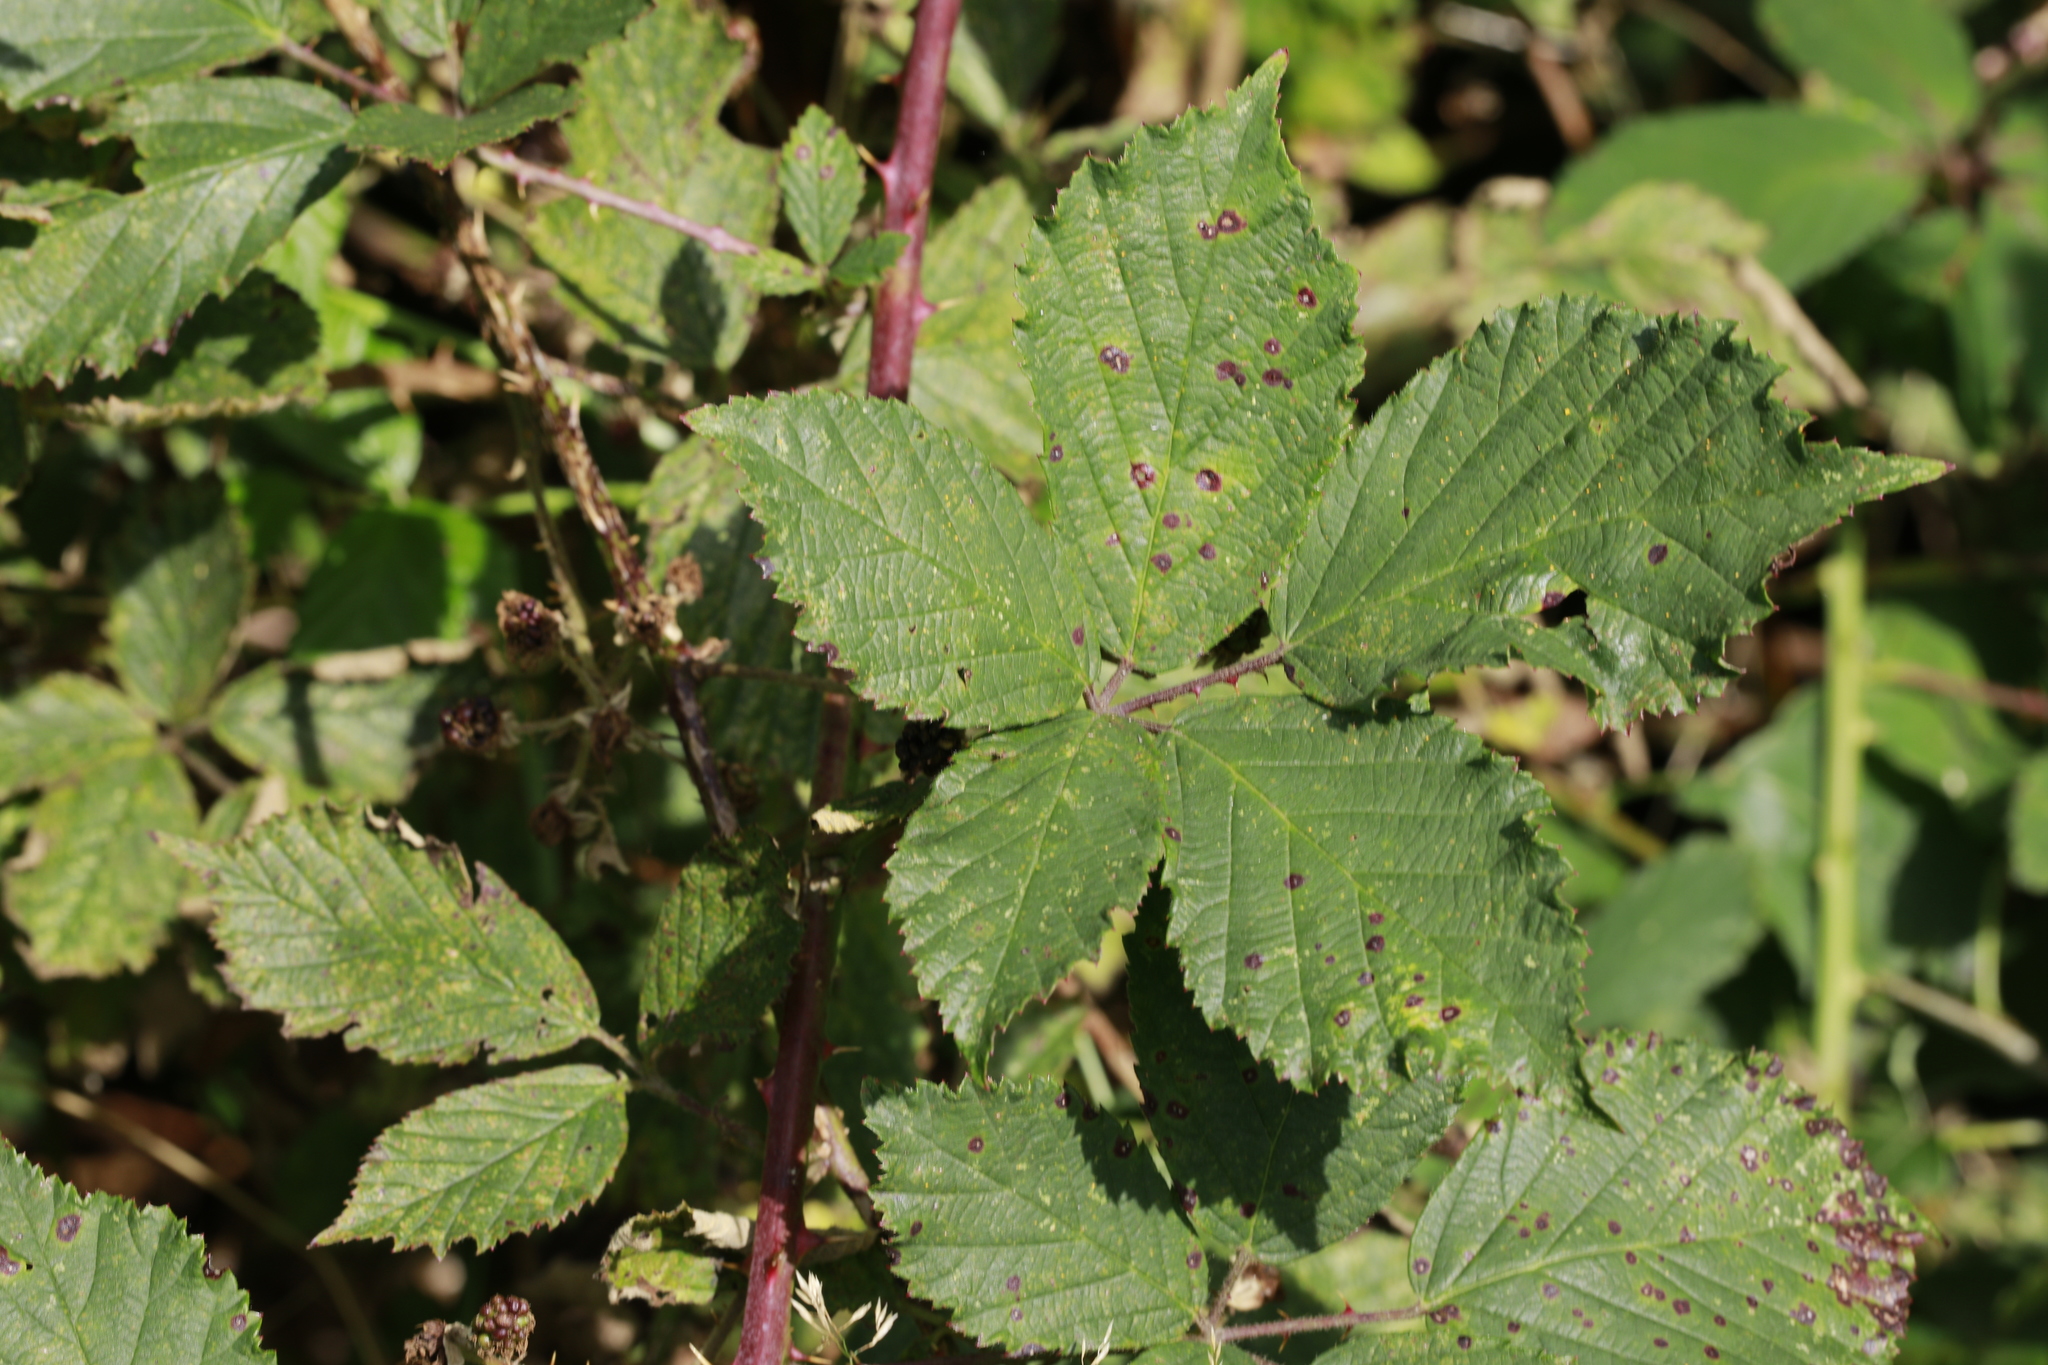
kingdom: Plantae
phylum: Tracheophyta
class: Magnoliopsida
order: Rosales
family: Rosaceae
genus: Rubus
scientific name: Rubus lindleyanus
